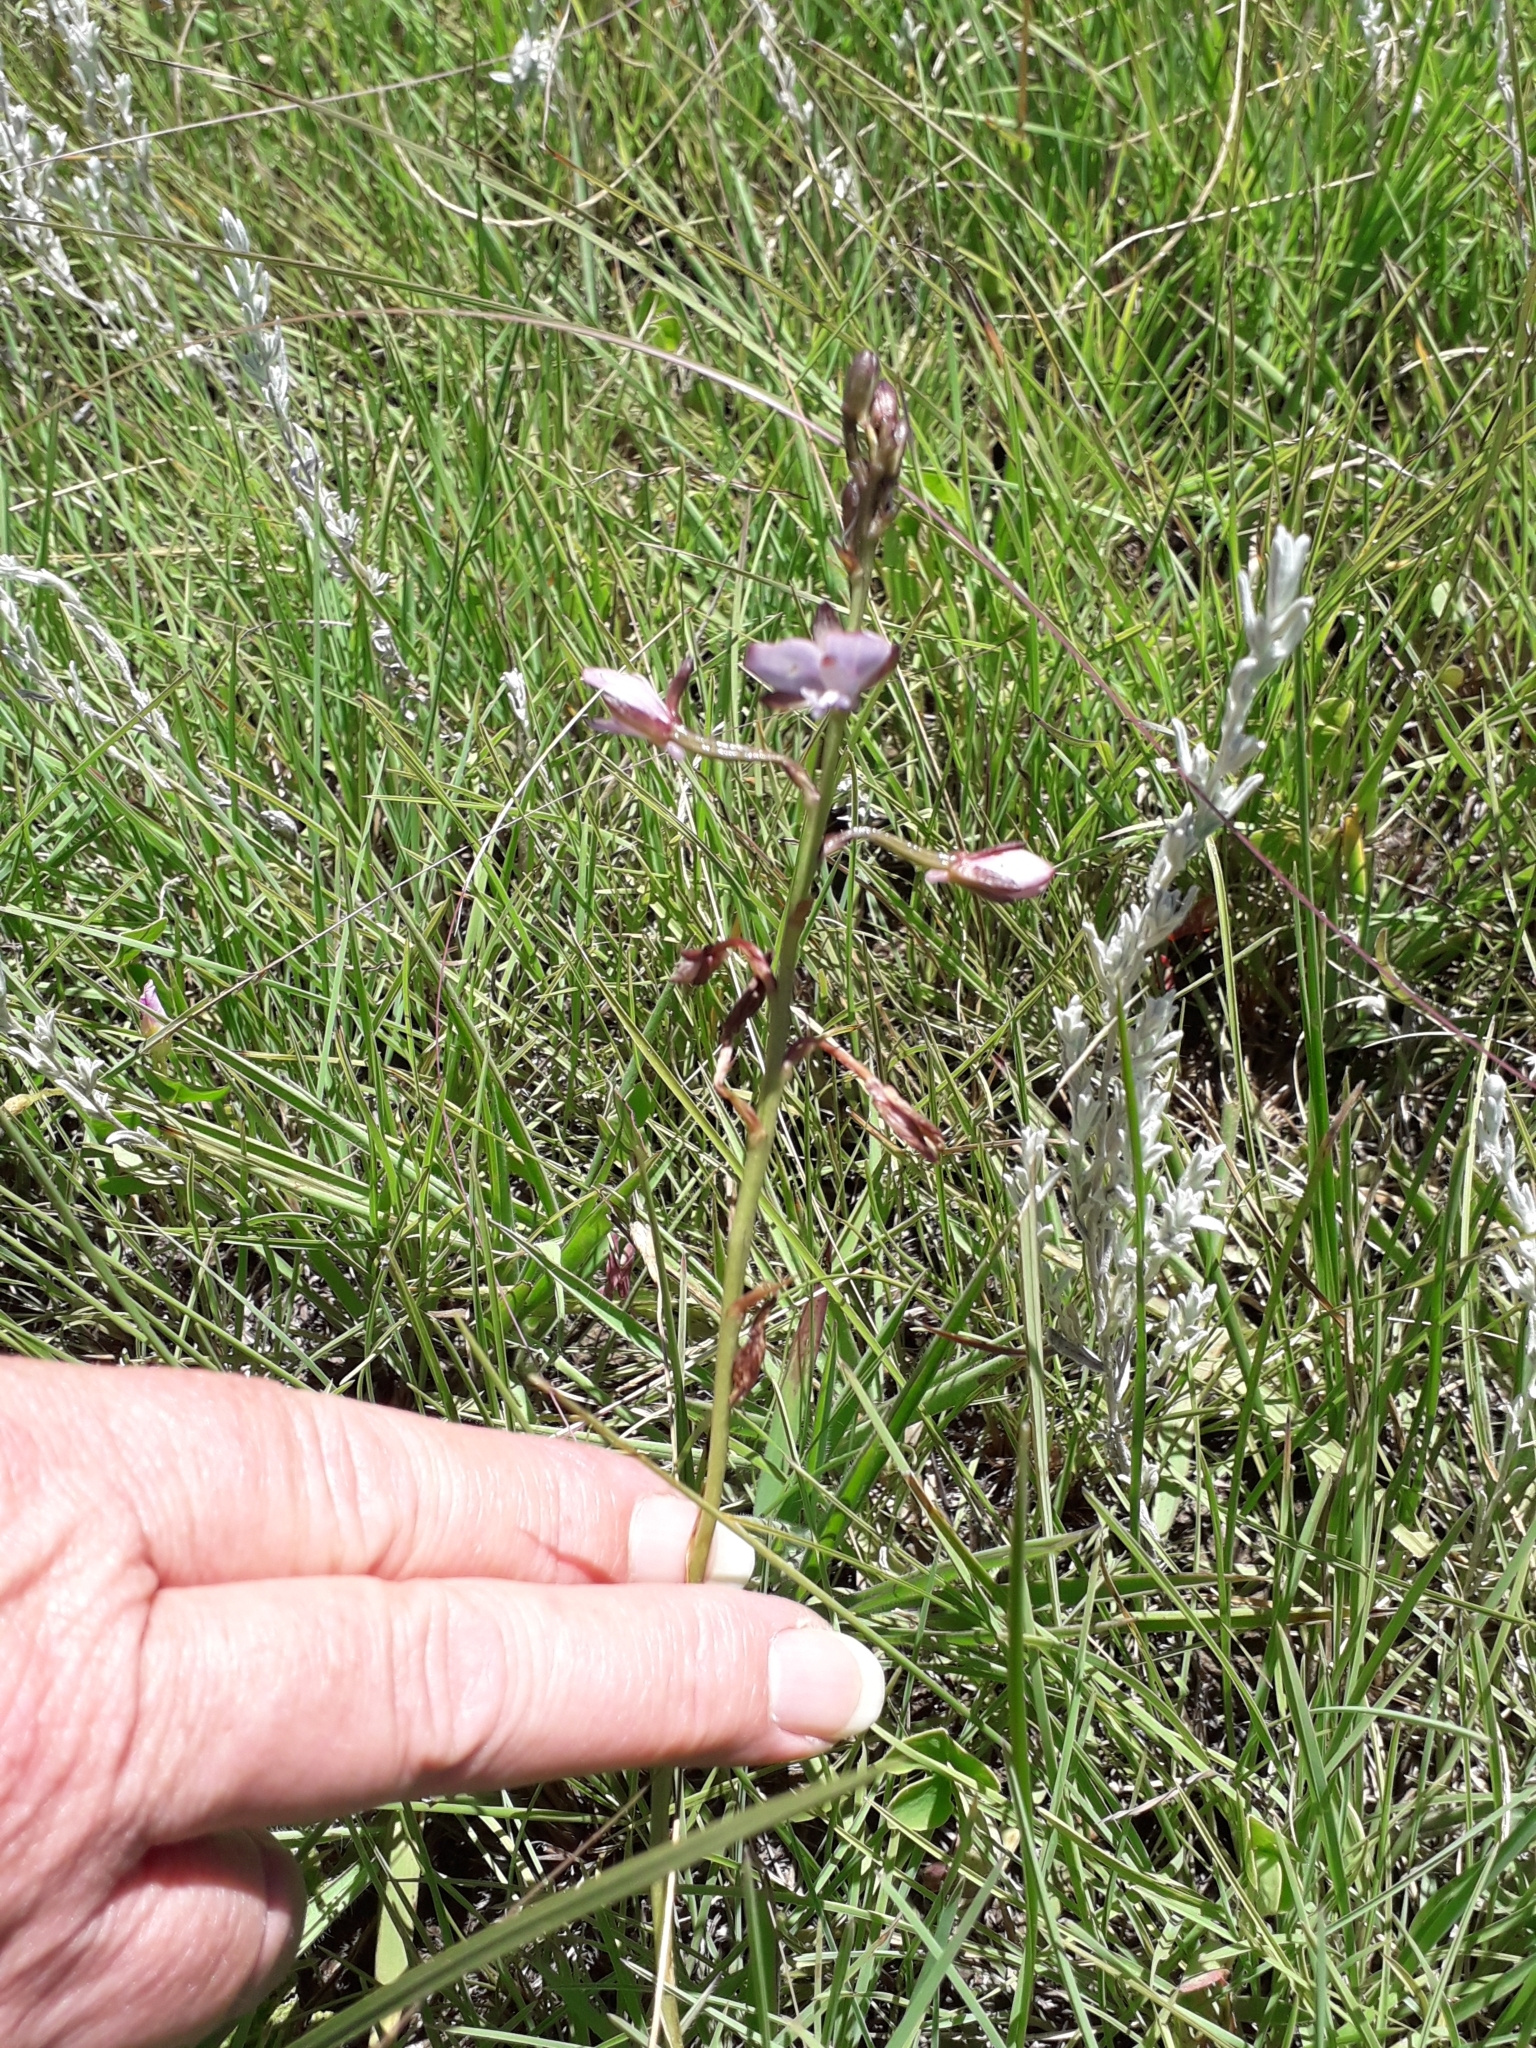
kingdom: Plantae
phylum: Tracheophyta
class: Liliopsida
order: Asparagales
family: Orchidaceae
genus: Eulophia
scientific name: Eulophia zeyheriana
